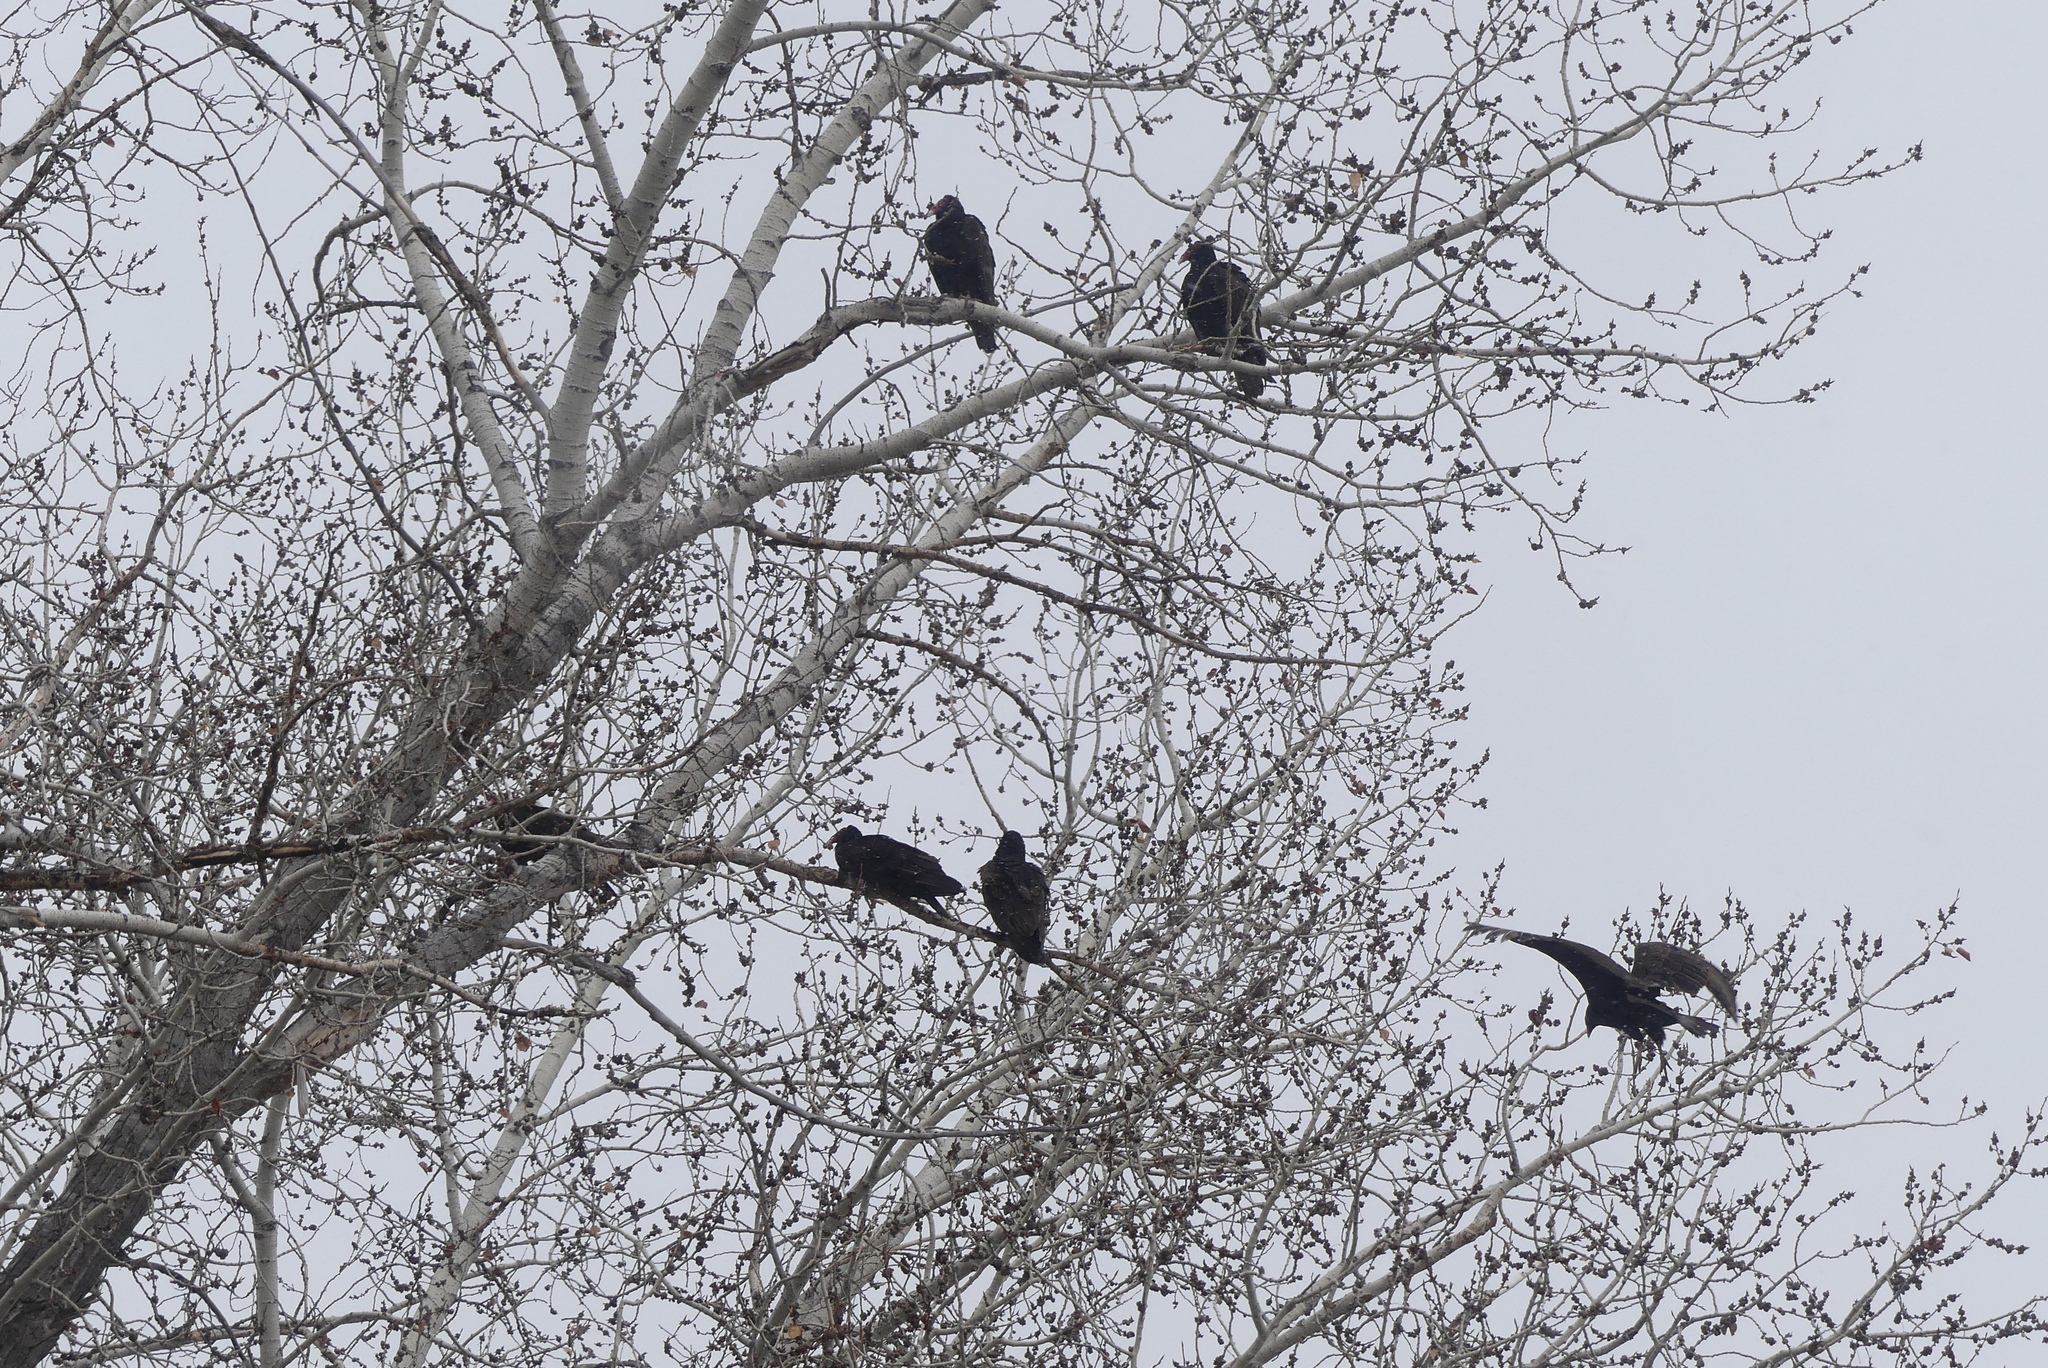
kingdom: Animalia
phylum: Chordata
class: Aves
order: Accipitriformes
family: Cathartidae
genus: Cathartes
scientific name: Cathartes aura
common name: Turkey vulture
